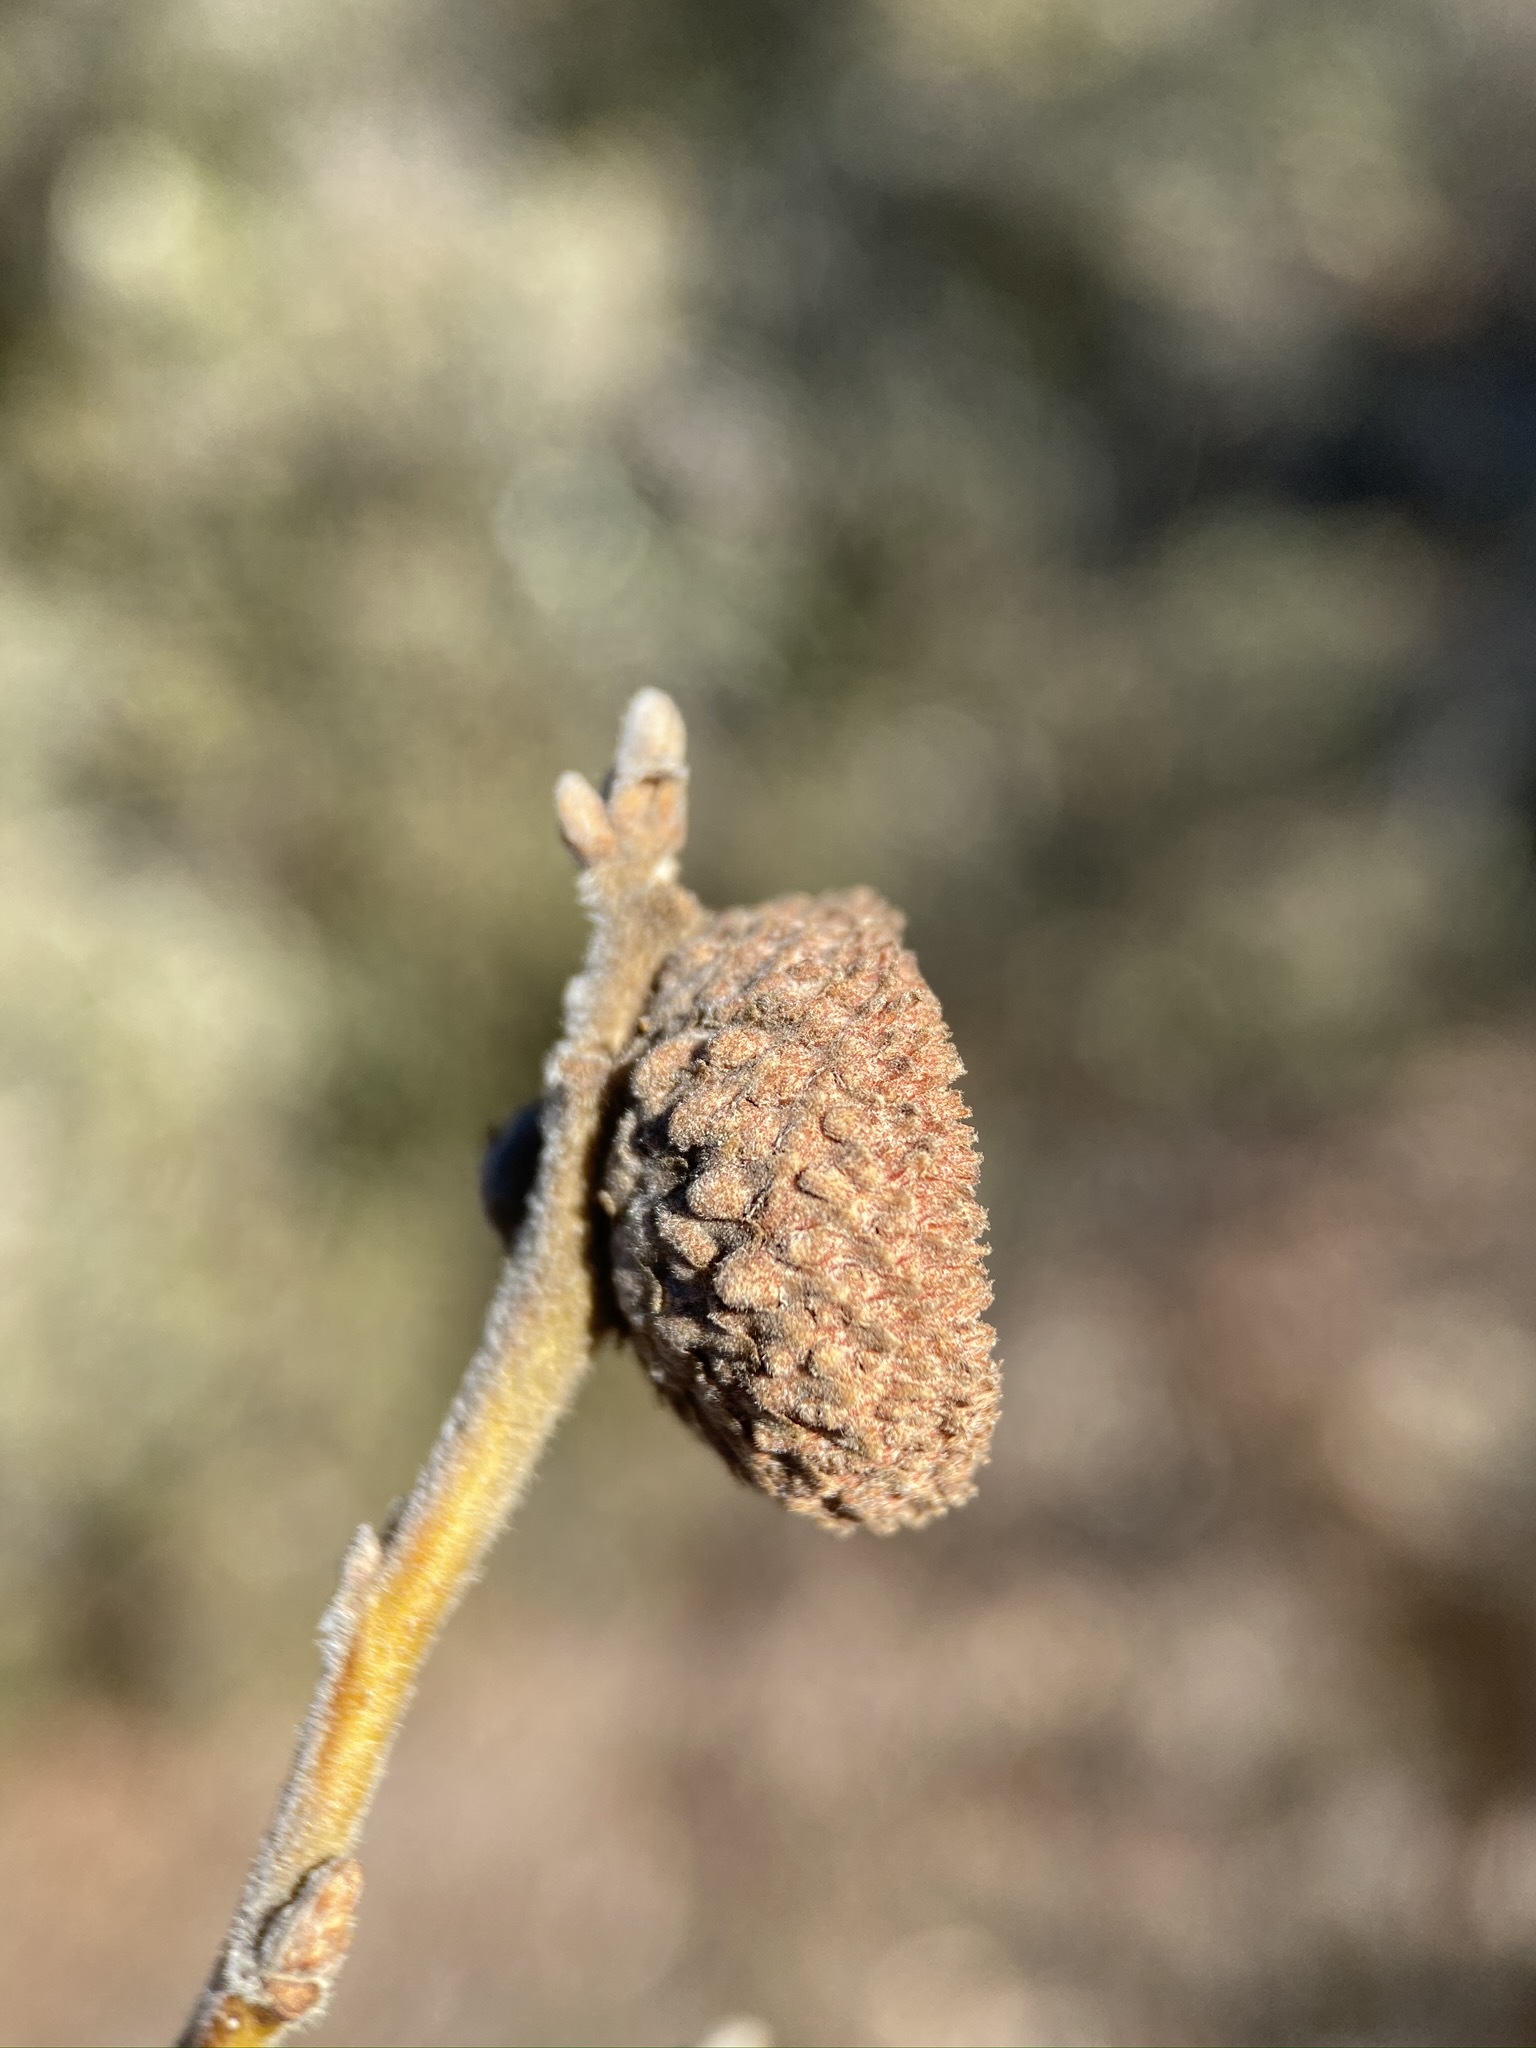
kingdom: Plantae
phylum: Tracheophyta
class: Magnoliopsida
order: Fagales
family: Fagaceae
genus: Quercus
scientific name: Quercus durata
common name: Leather oak
